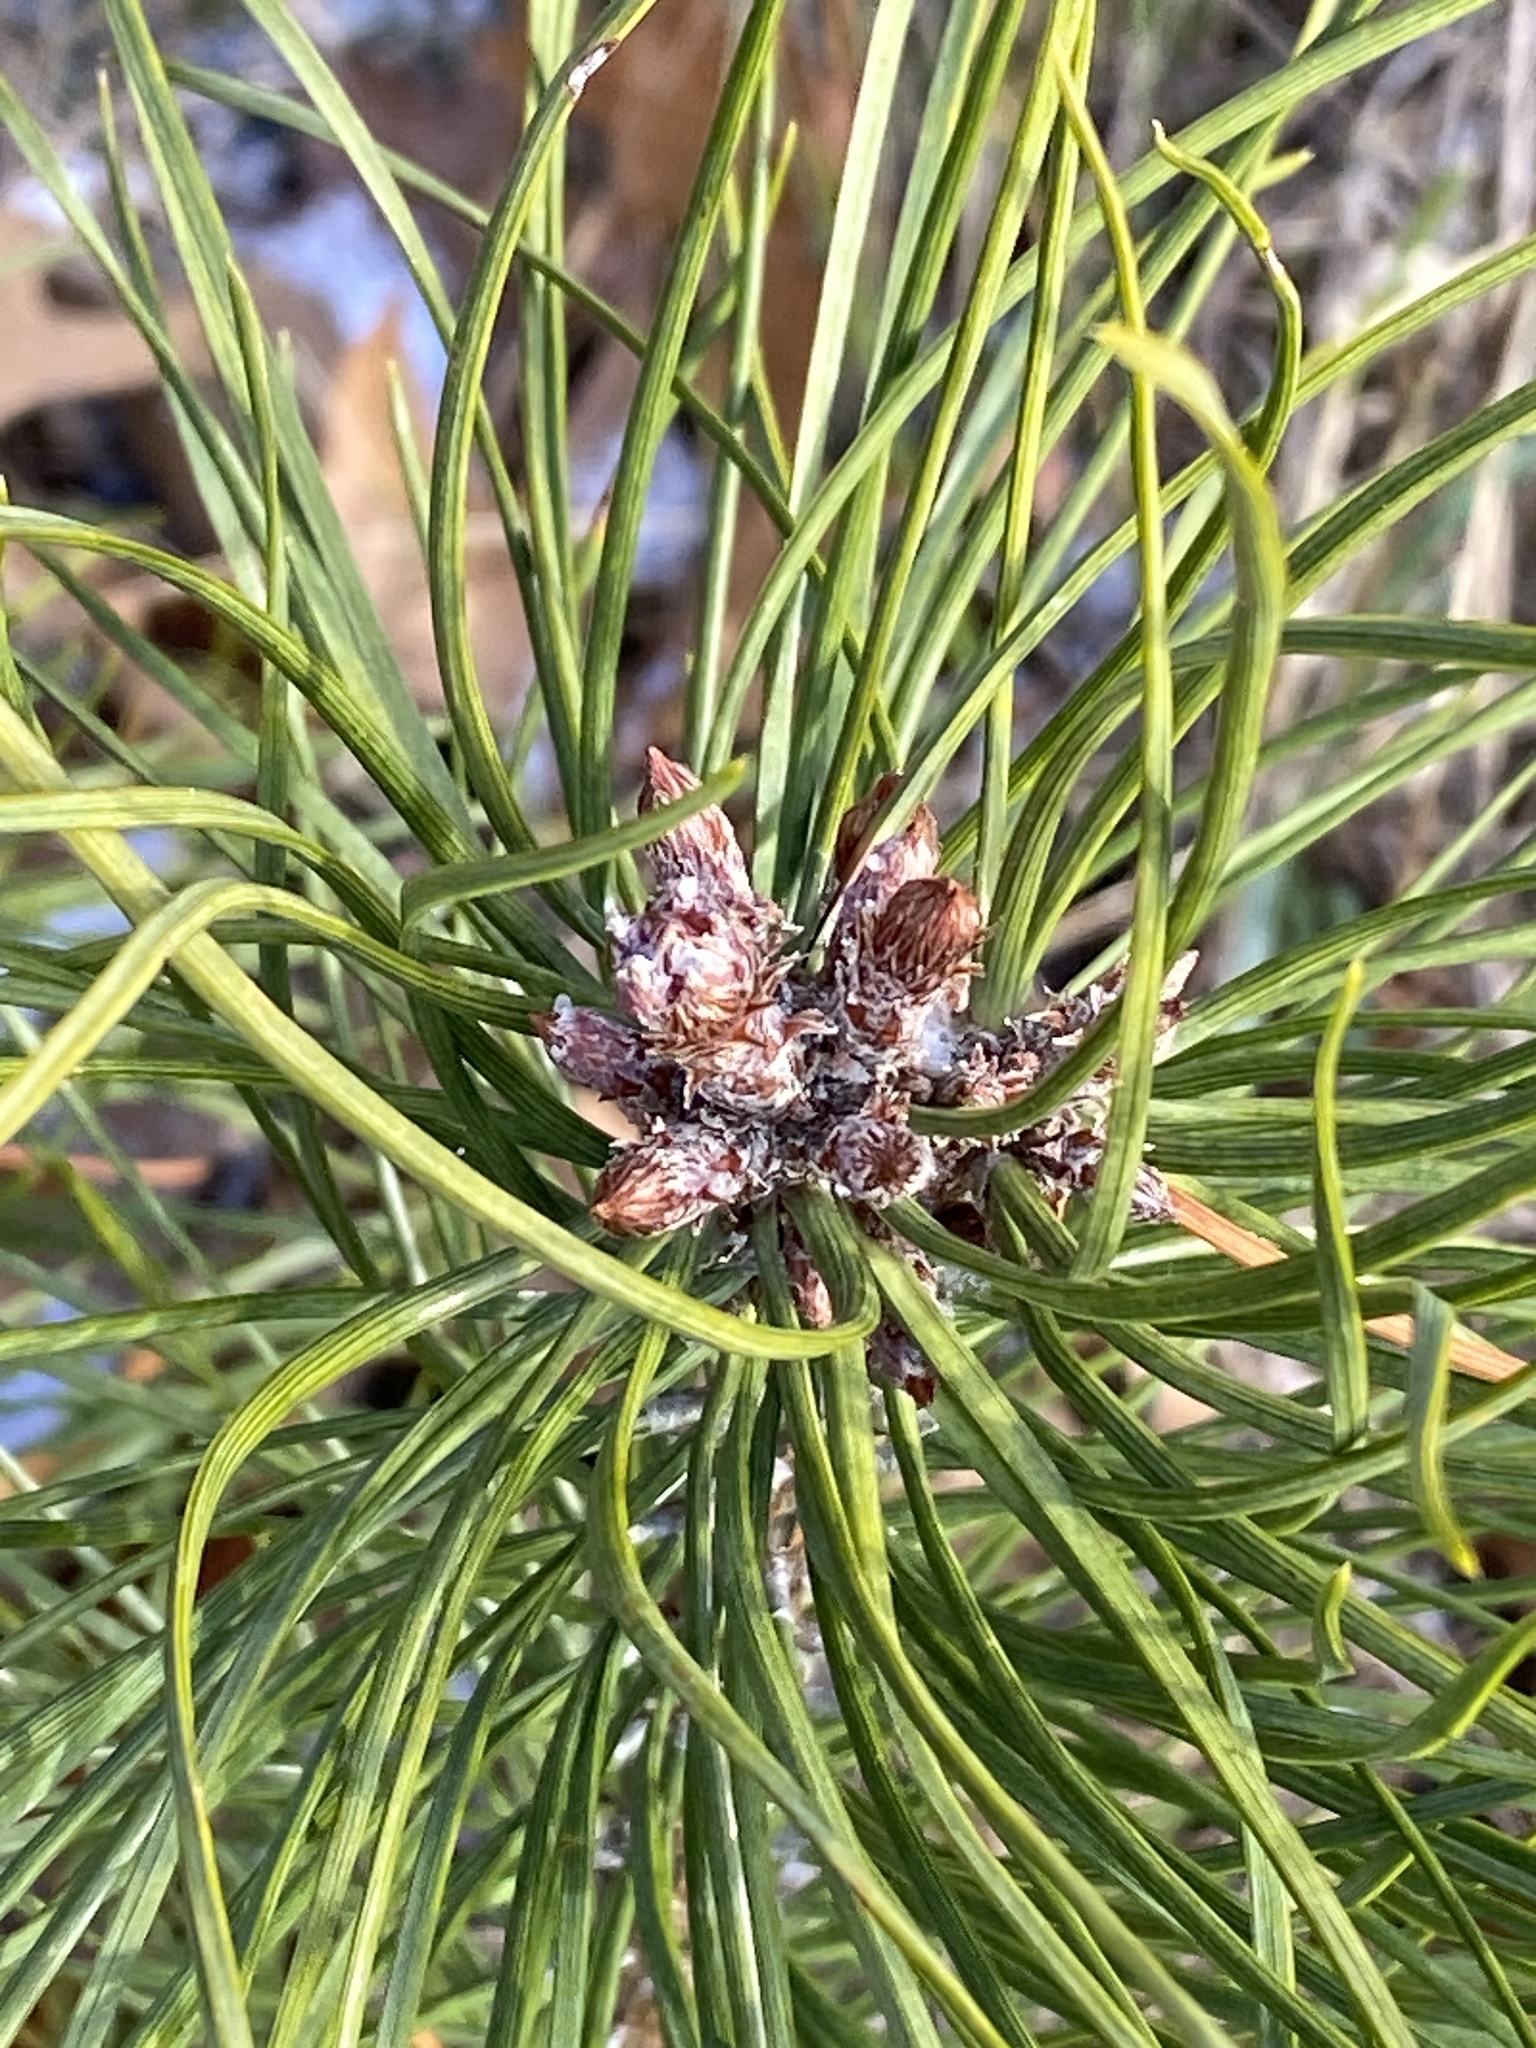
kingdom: Plantae
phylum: Tracheophyta
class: Pinopsida
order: Pinales
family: Pinaceae
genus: Pinus
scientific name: Pinus sylvestris
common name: Scots pine
